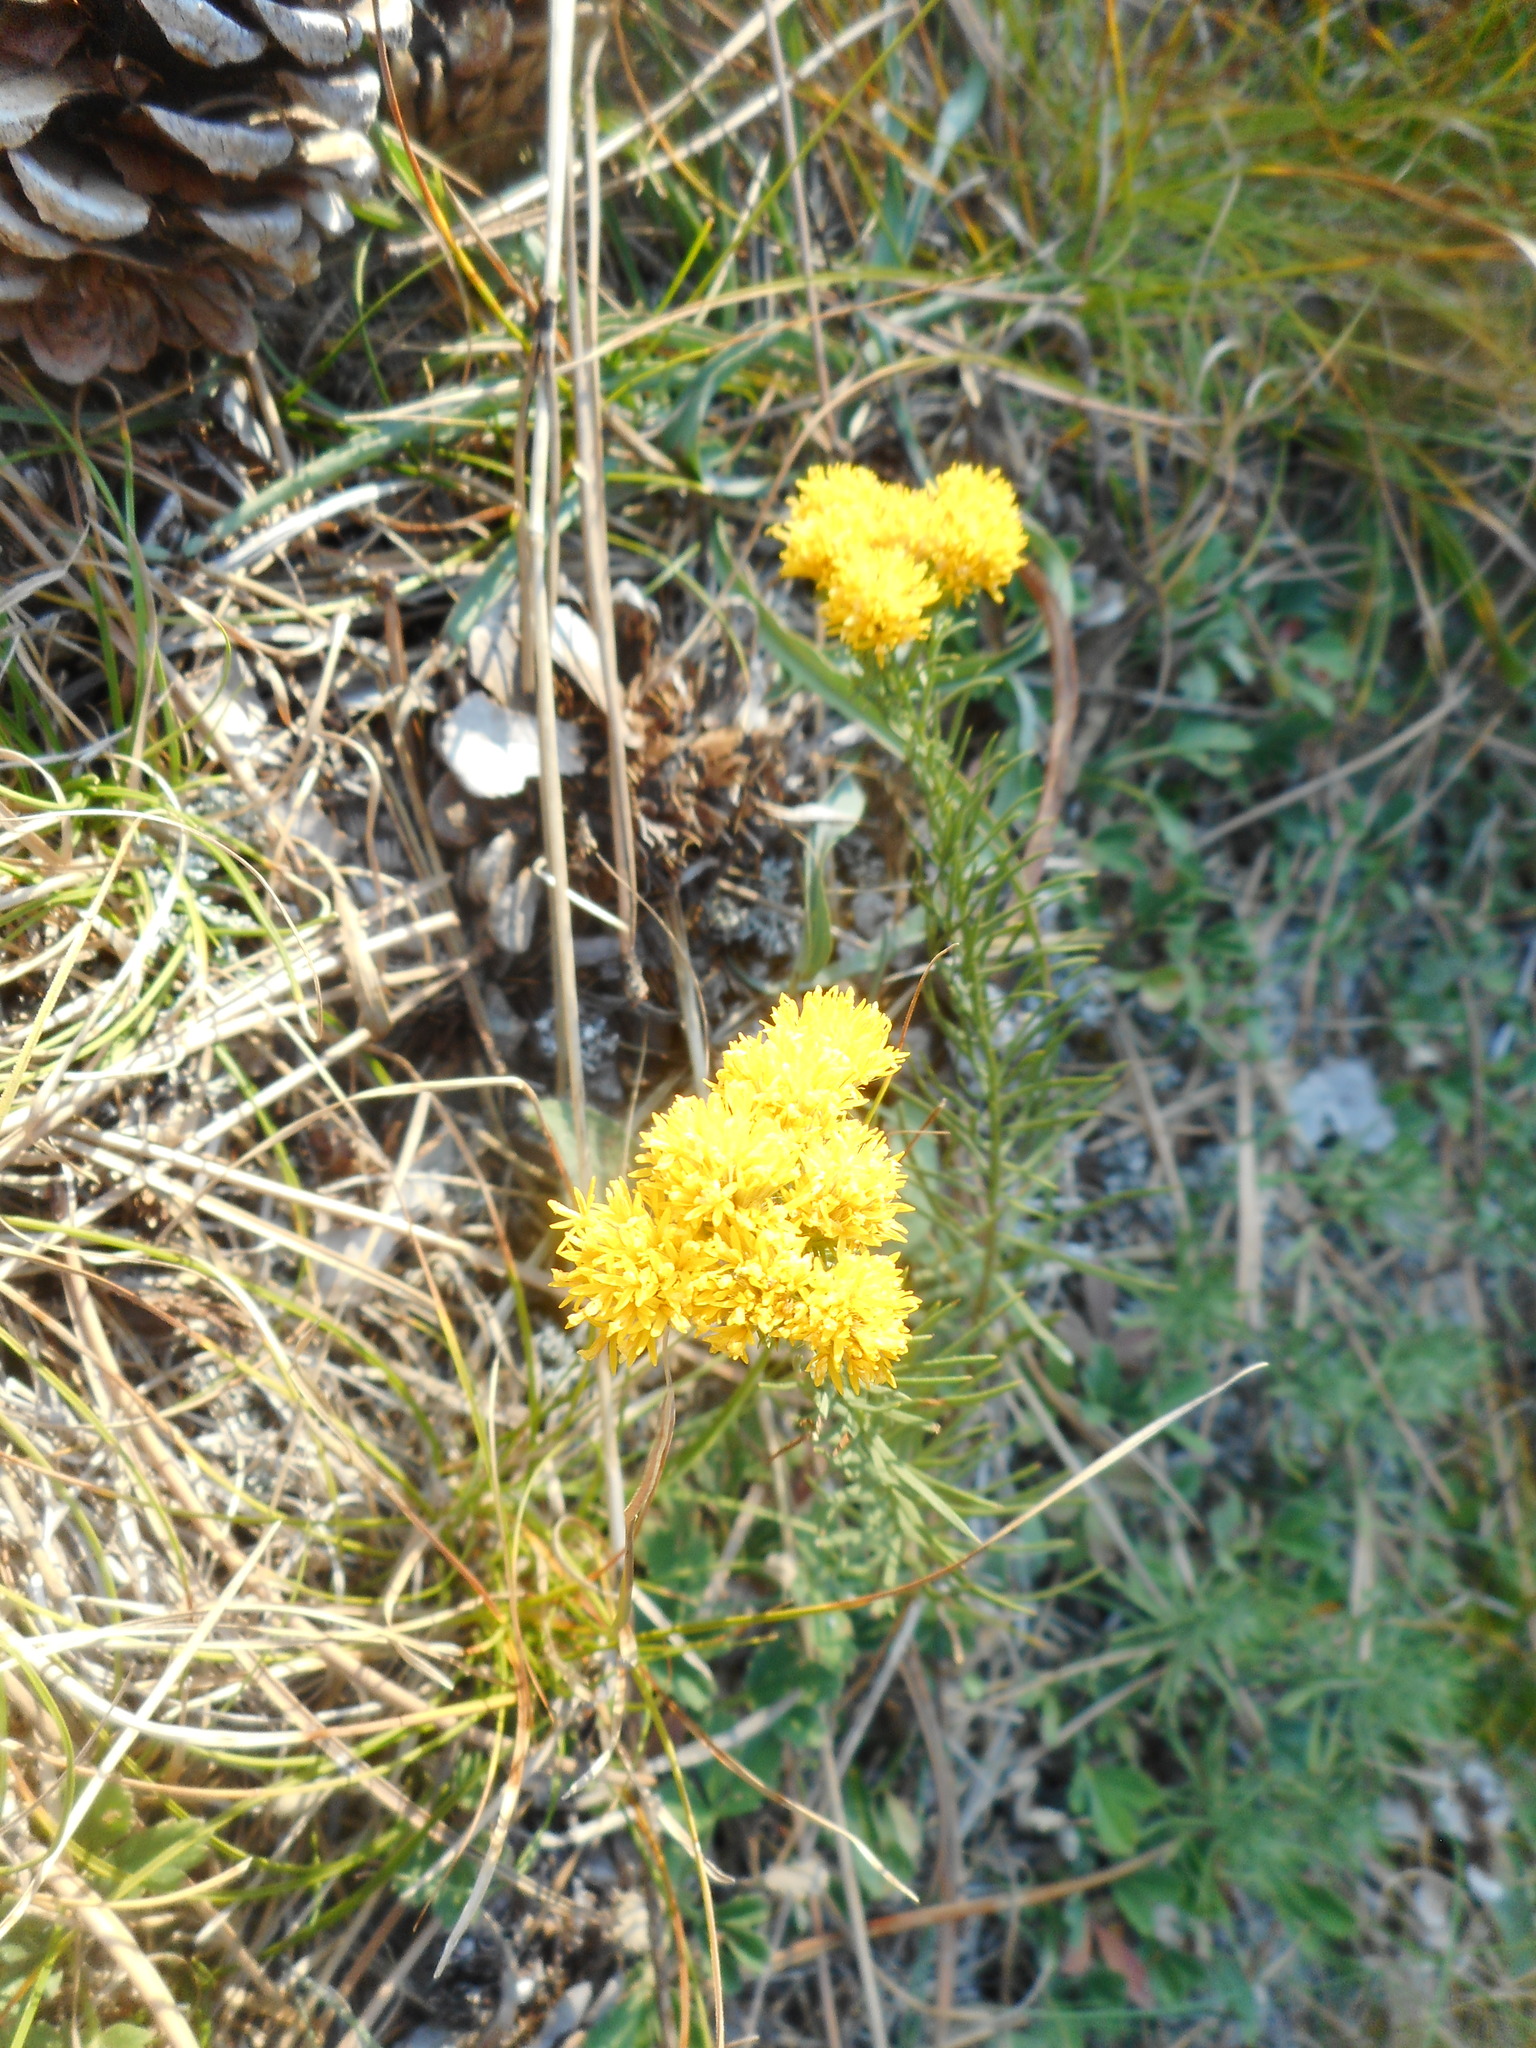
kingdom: Plantae
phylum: Tracheophyta
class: Magnoliopsida
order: Asterales
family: Asteraceae
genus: Galatella
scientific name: Galatella linosyris
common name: Goldilocks aster
